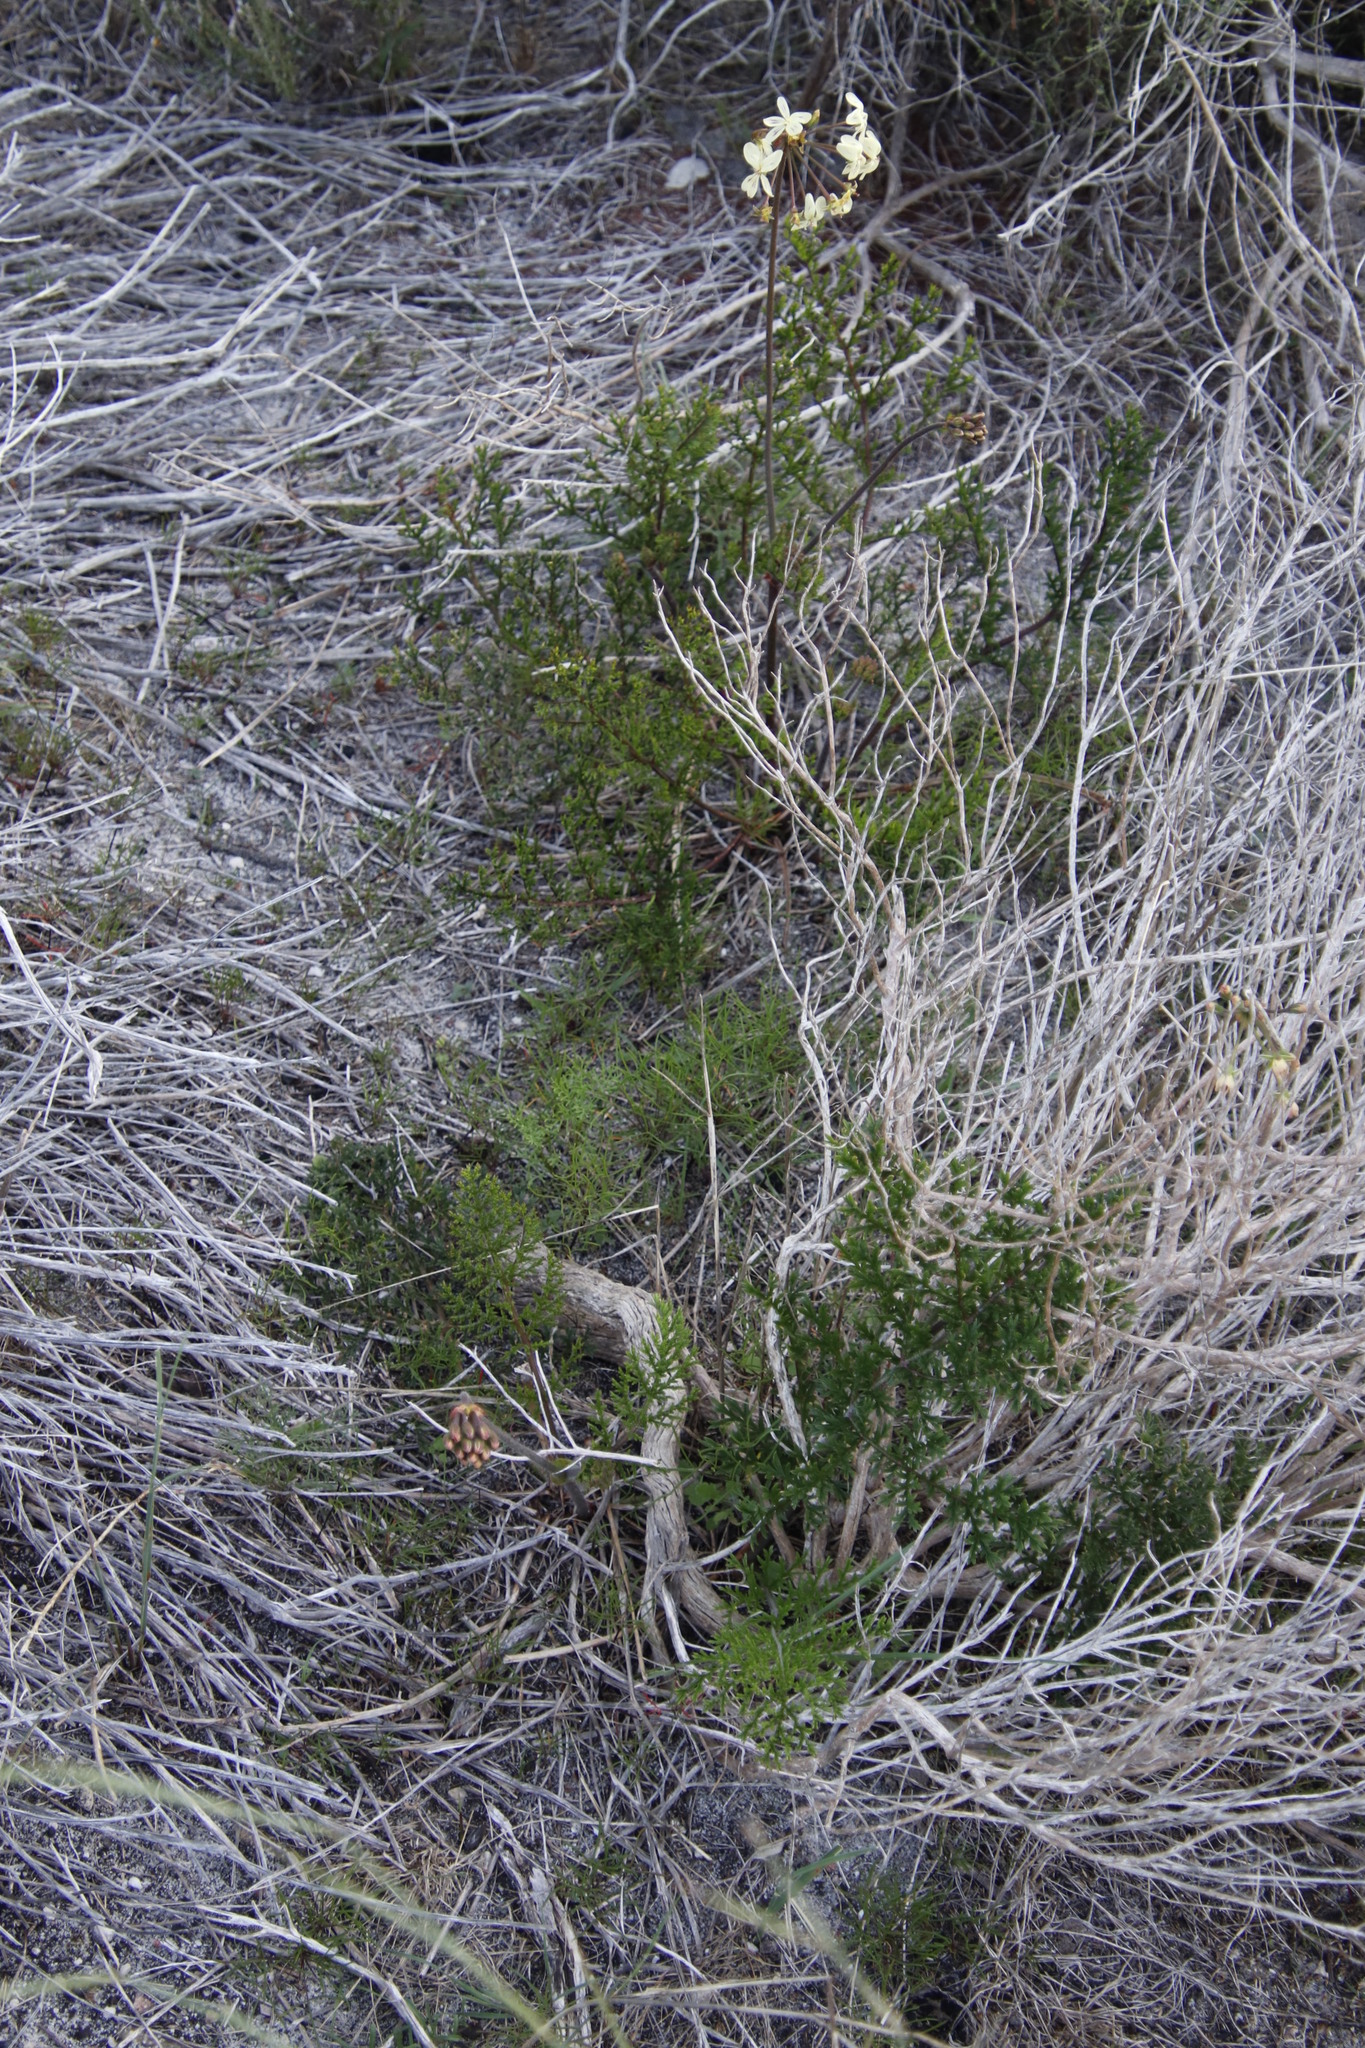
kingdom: Plantae
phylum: Tracheophyta
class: Magnoliopsida
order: Geraniales
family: Geraniaceae
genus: Pelargonium
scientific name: Pelargonium triste
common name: Night-scent pelargonium
